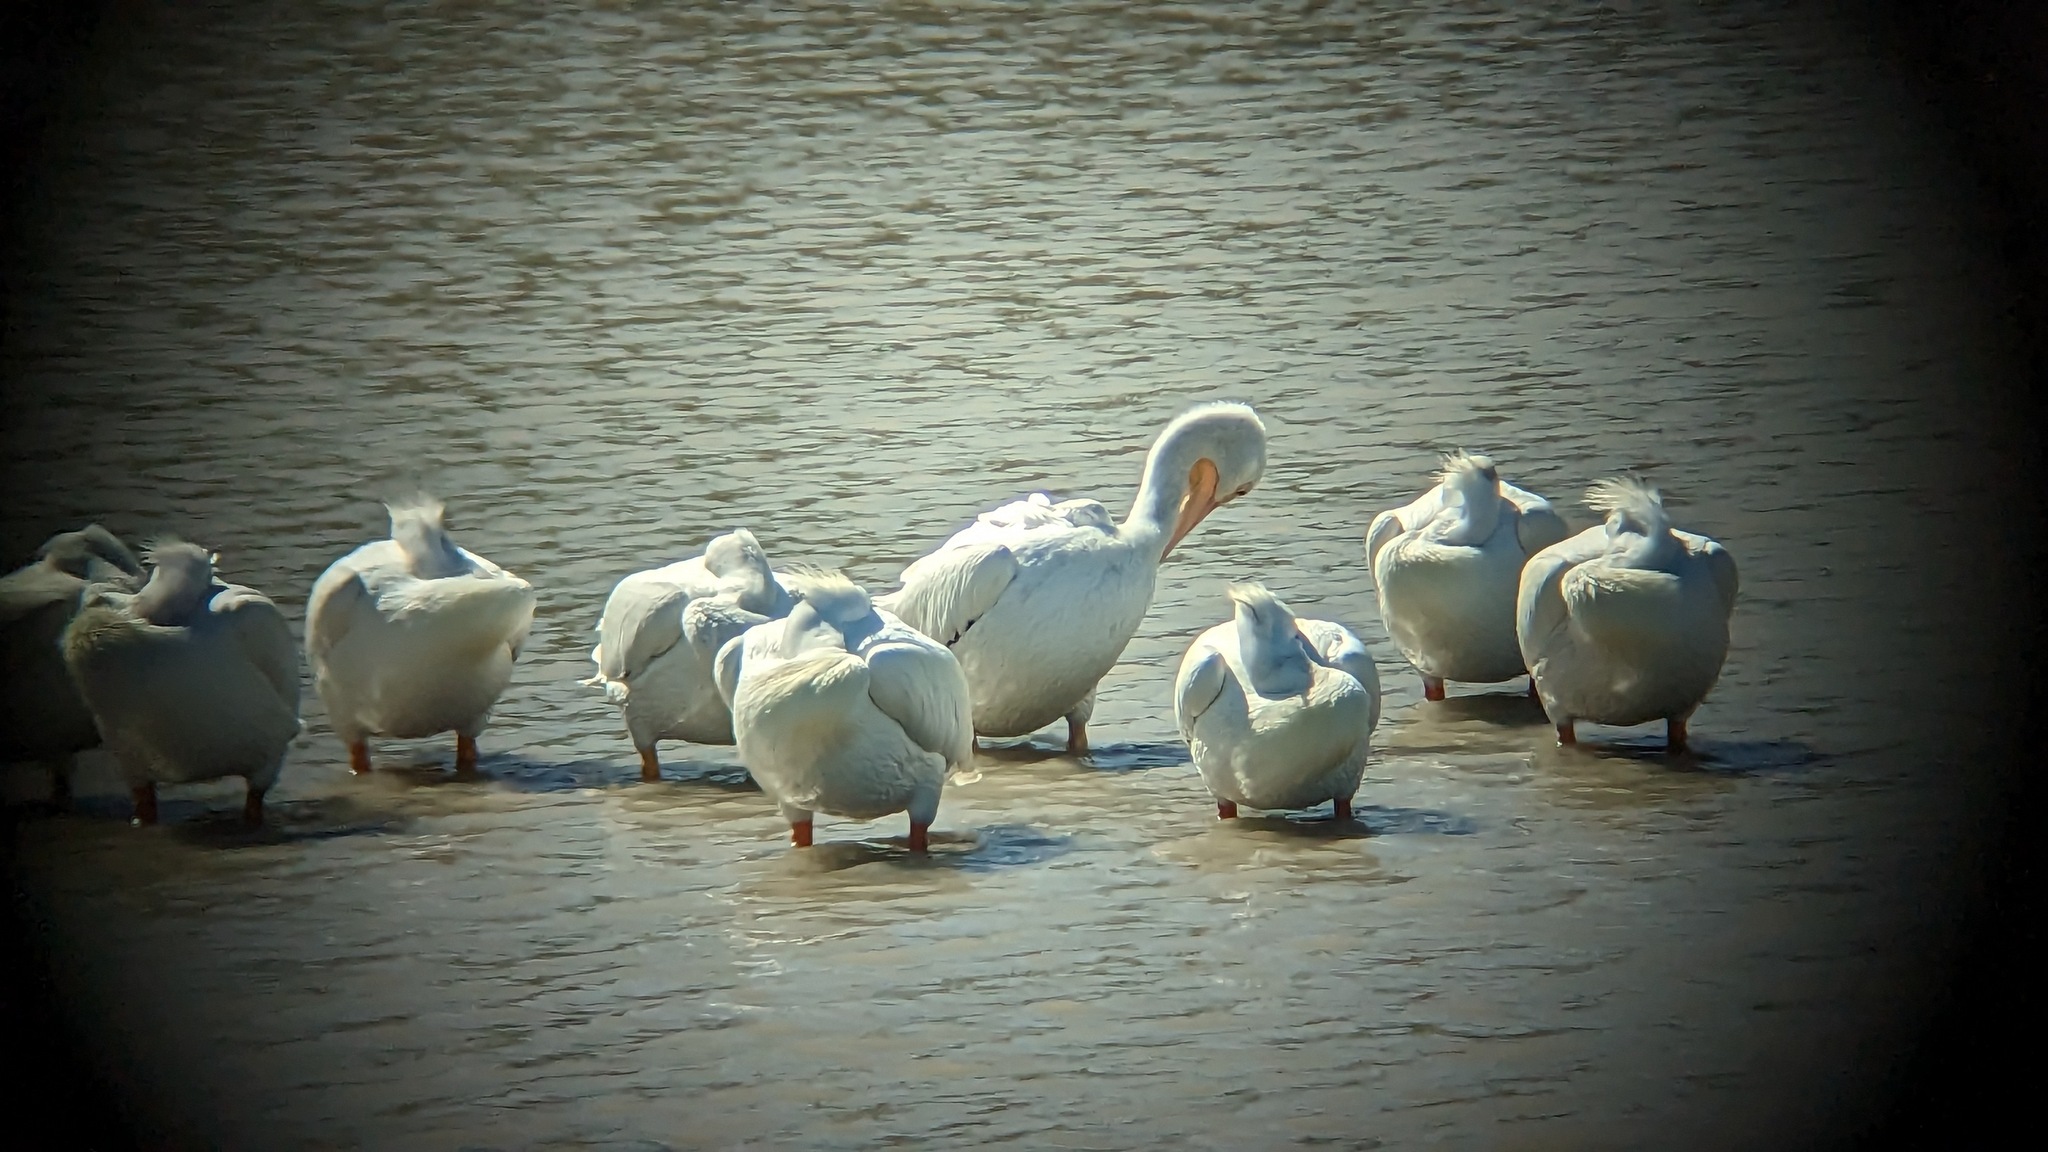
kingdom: Animalia
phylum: Chordata
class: Aves
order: Pelecaniformes
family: Pelecanidae
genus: Pelecanus
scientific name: Pelecanus erythrorhynchos
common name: American white pelican
